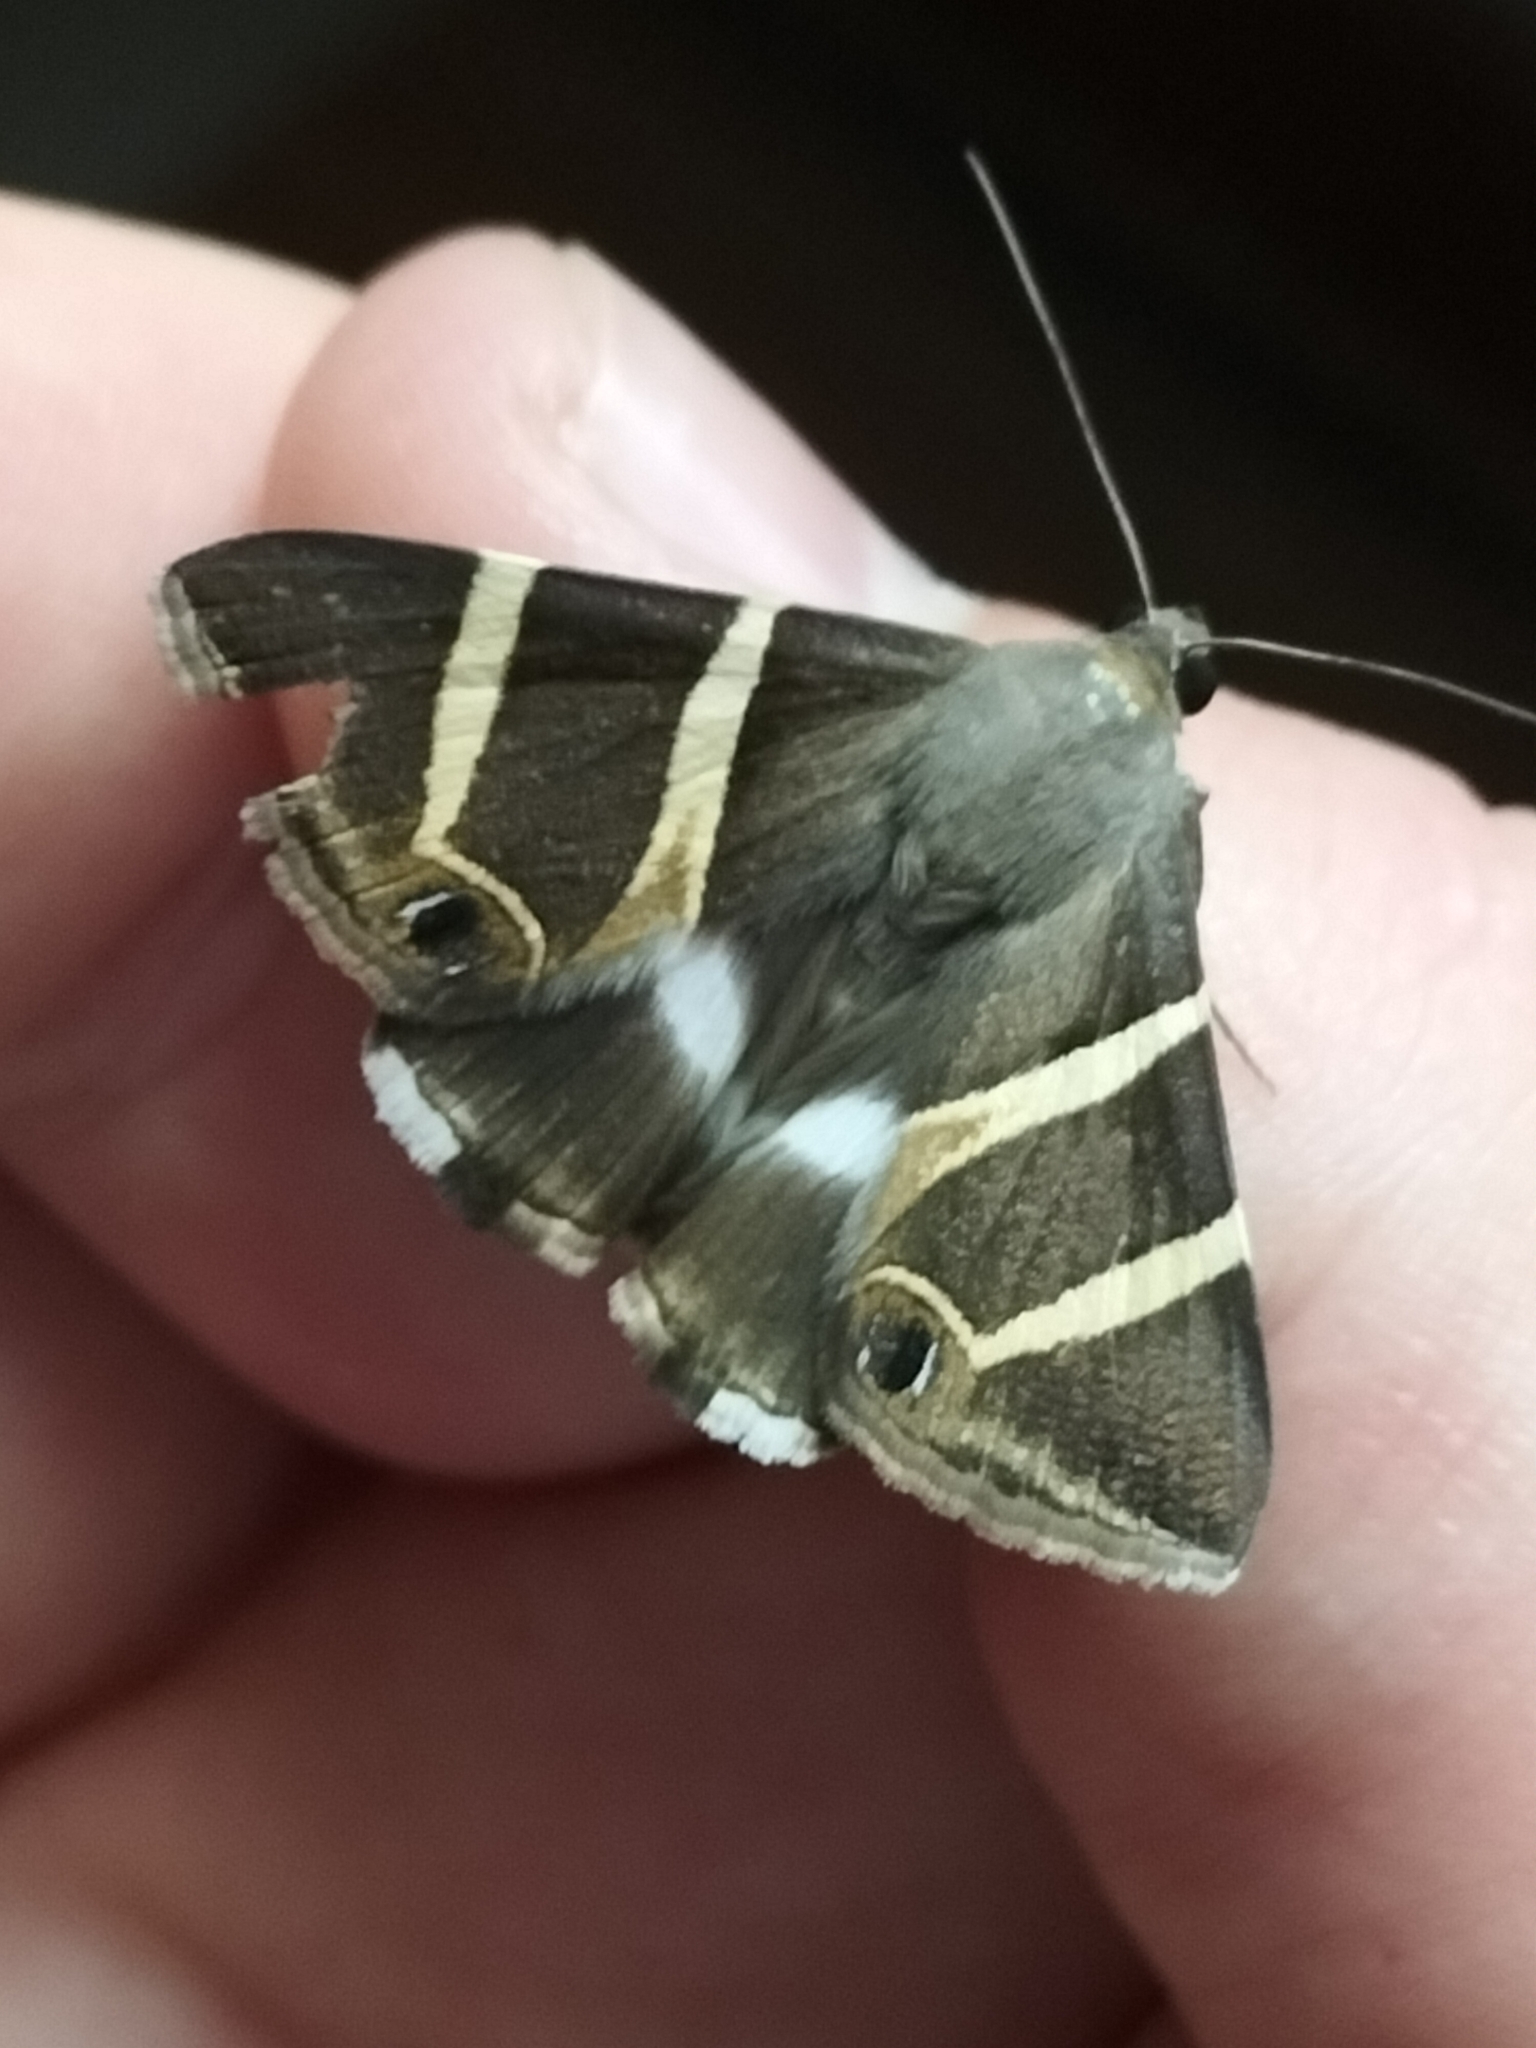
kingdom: Animalia
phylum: Arthropoda
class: Insecta
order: Lepidoptera
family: Erebidae
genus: Grammodes
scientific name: Grammodes oculicola
